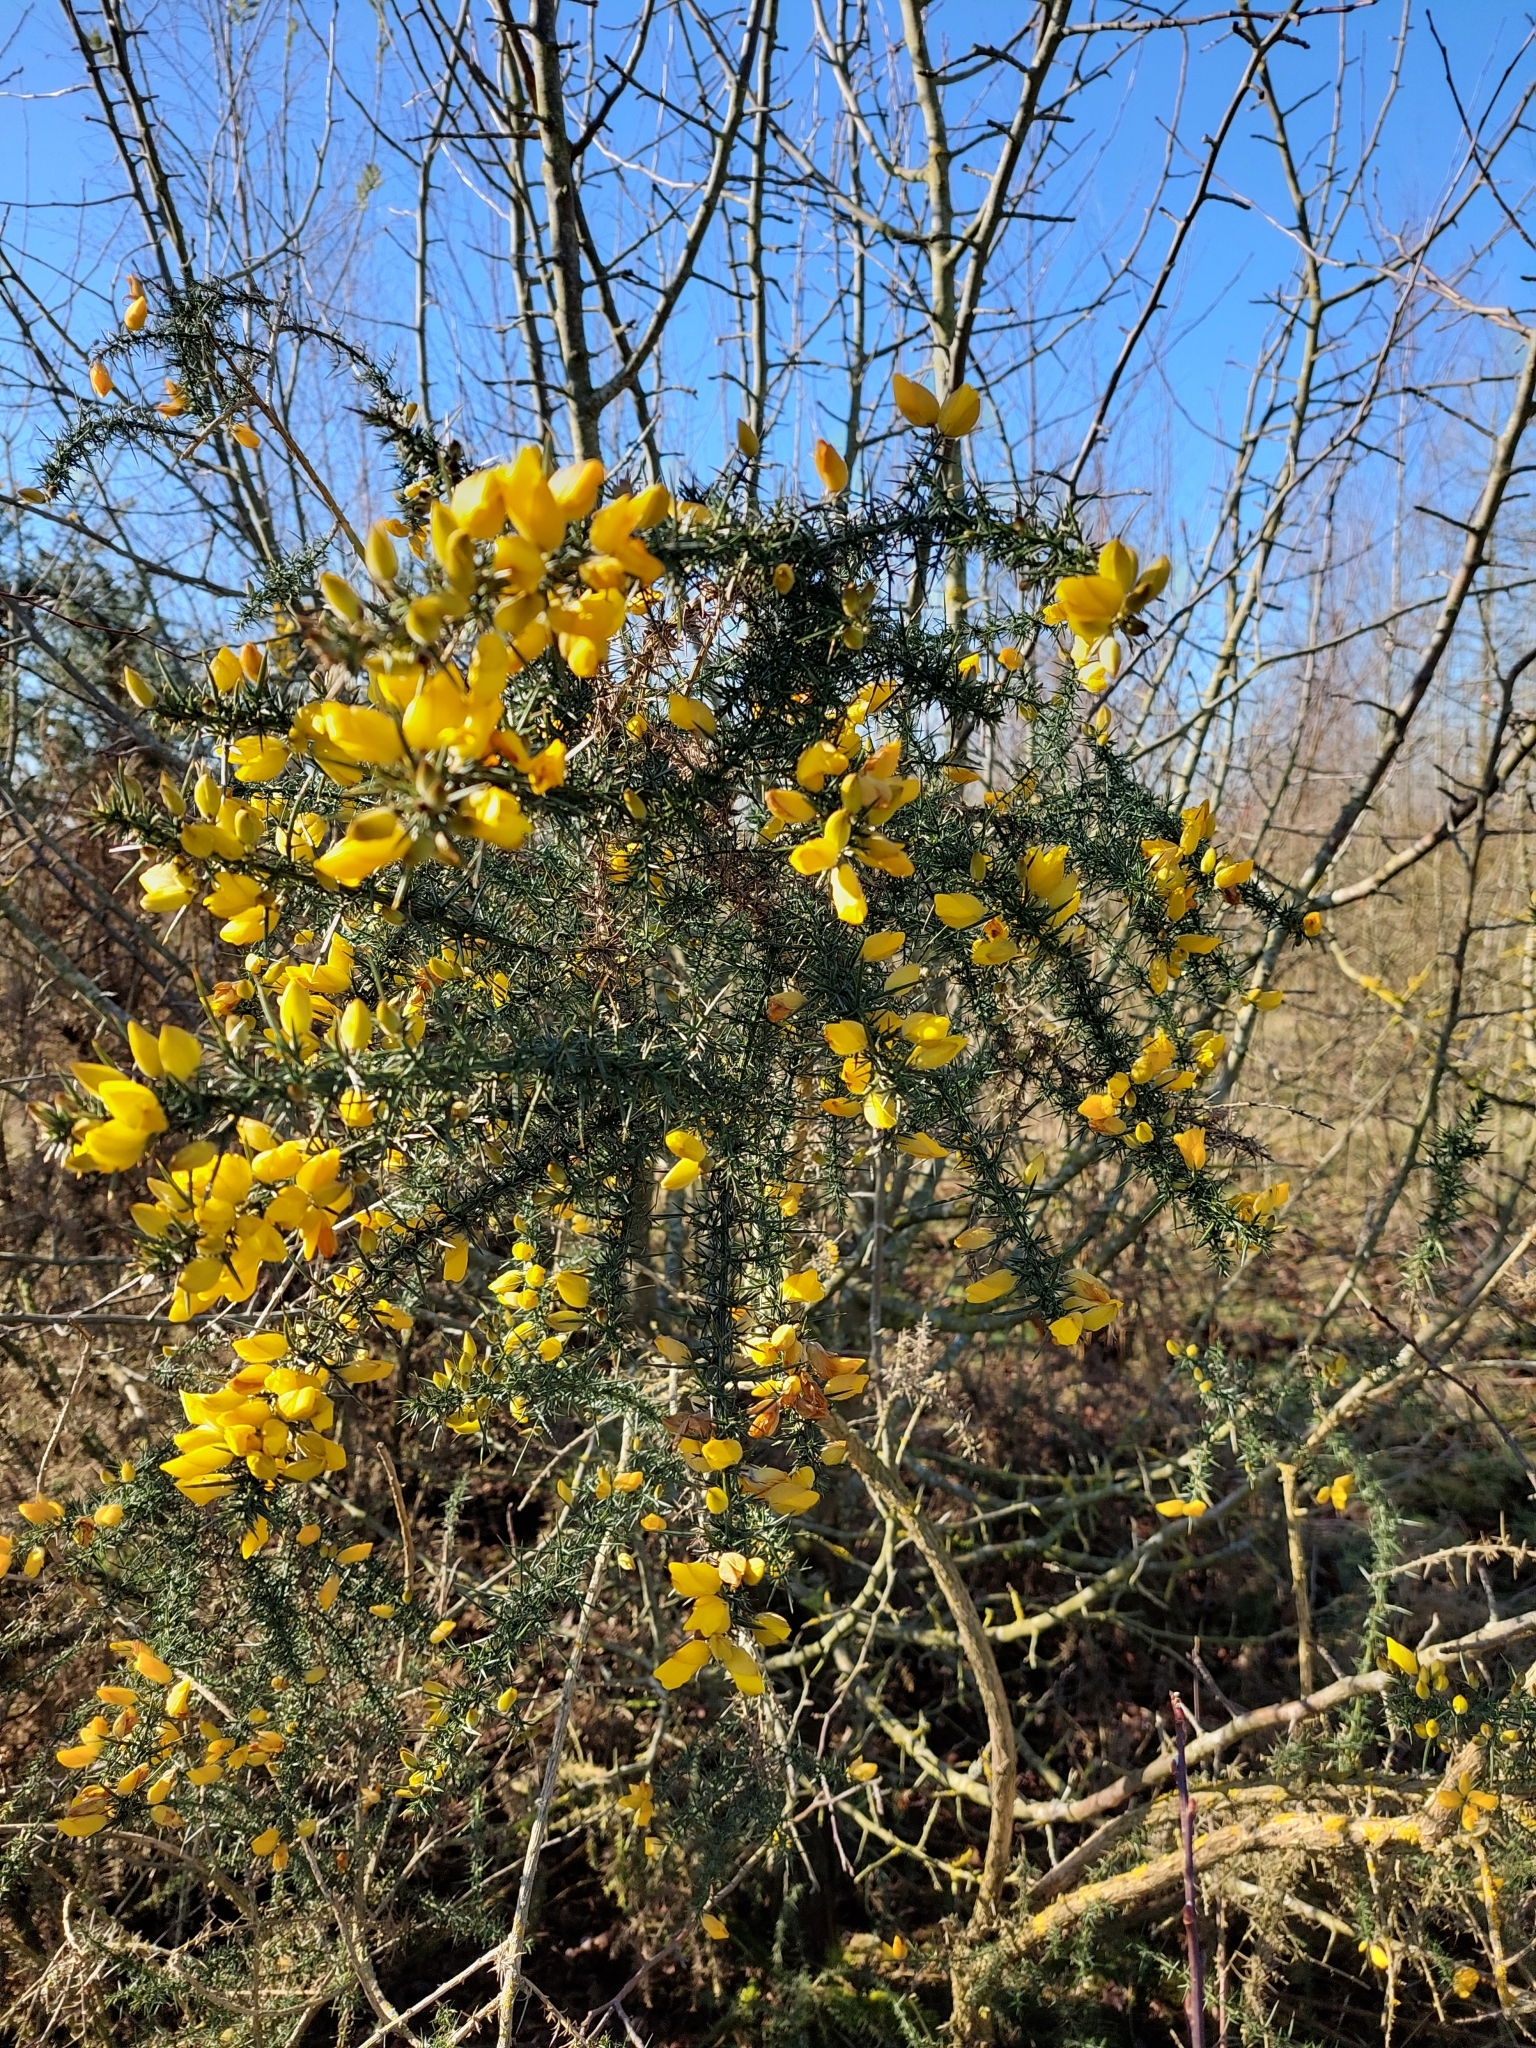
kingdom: Plantae
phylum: Tracheophyta
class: Magnoliopsida
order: Fabales
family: Fabaceae
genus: Ulex
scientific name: Ulex europaeus
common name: Common gorse
